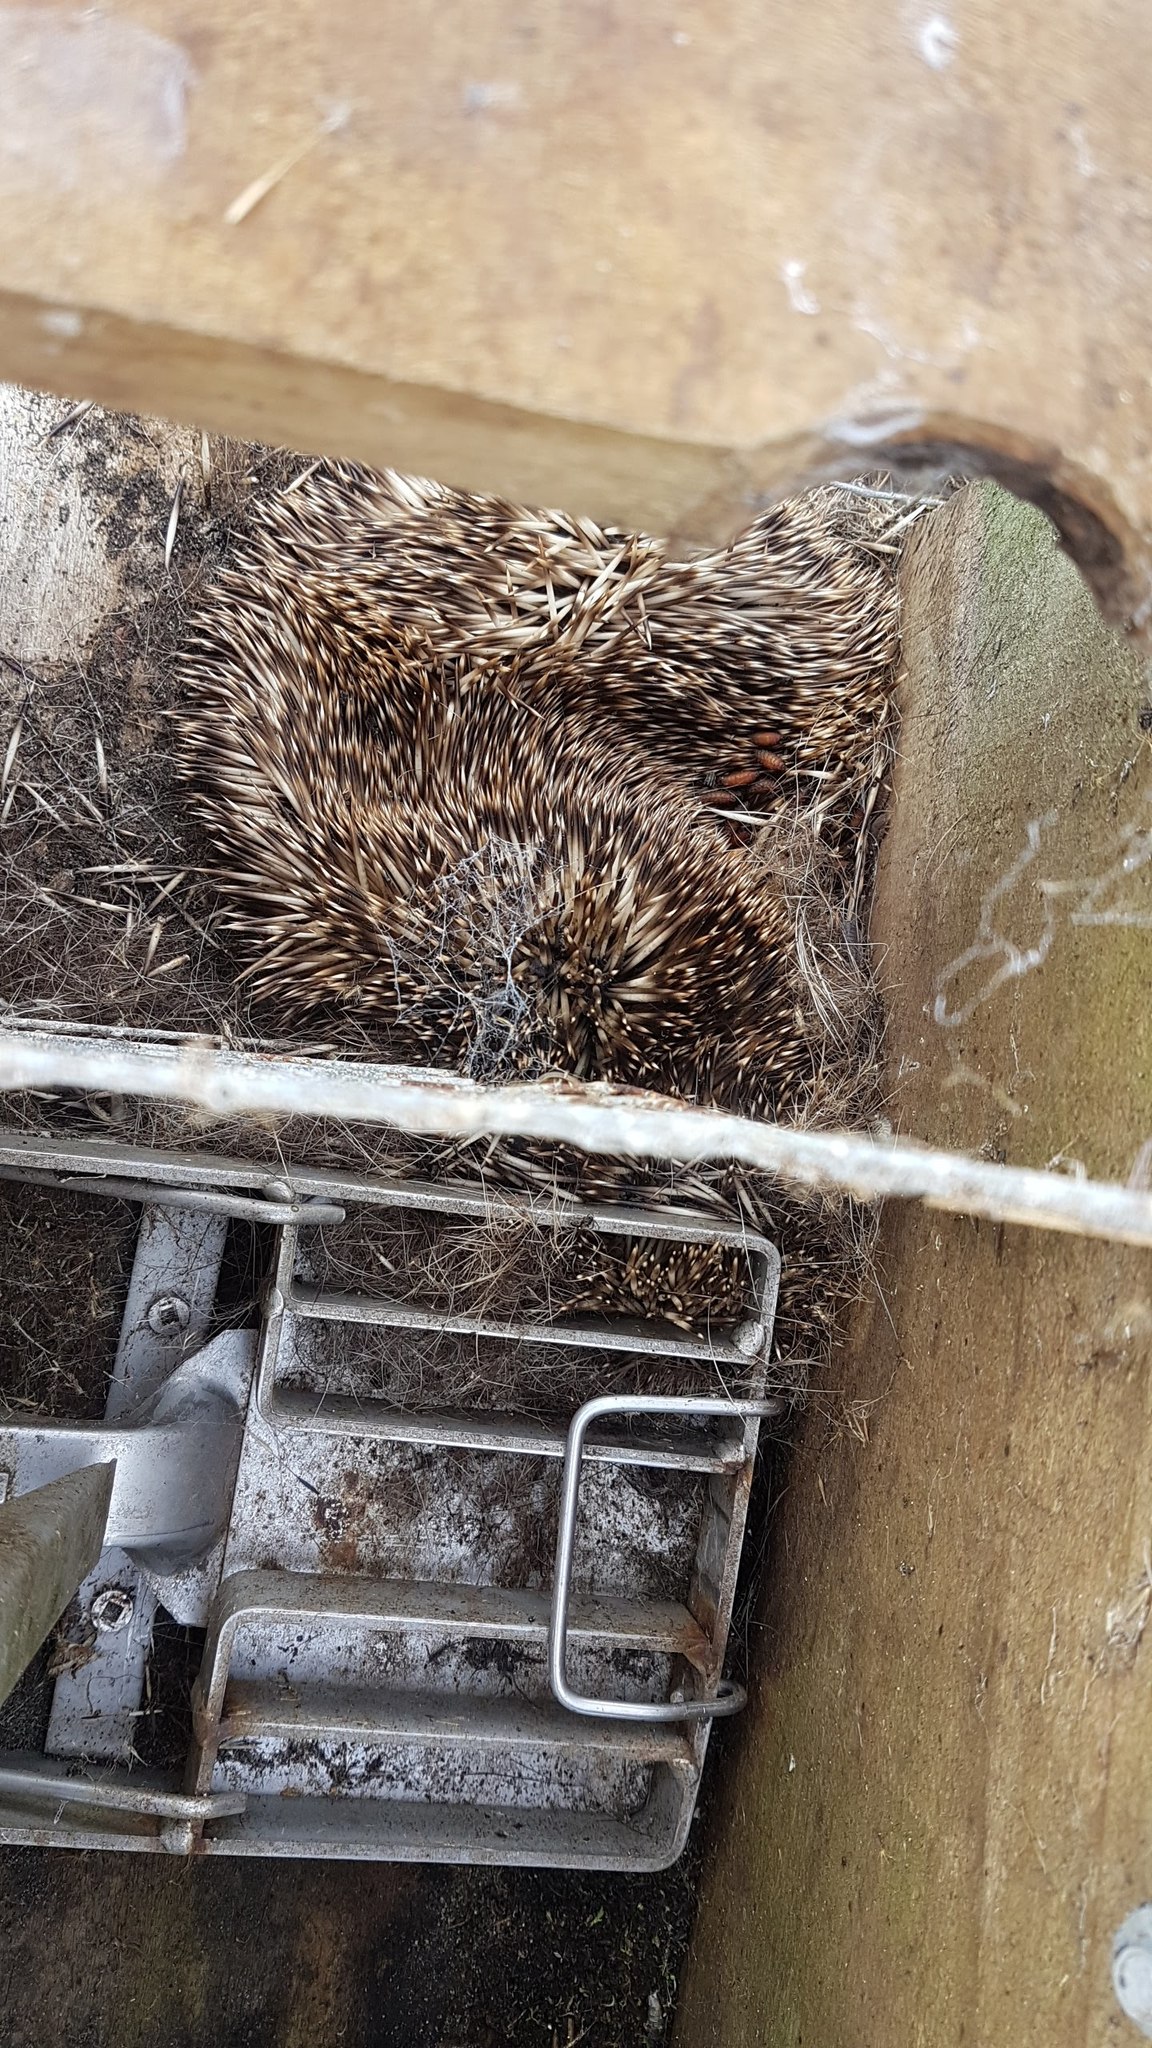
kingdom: Animalia
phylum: Chordata
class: Mammalia
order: Erinaceomorpha
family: Erinaceidae
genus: Erinaceus
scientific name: Erinaceus europaeus
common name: West european hedgehog
